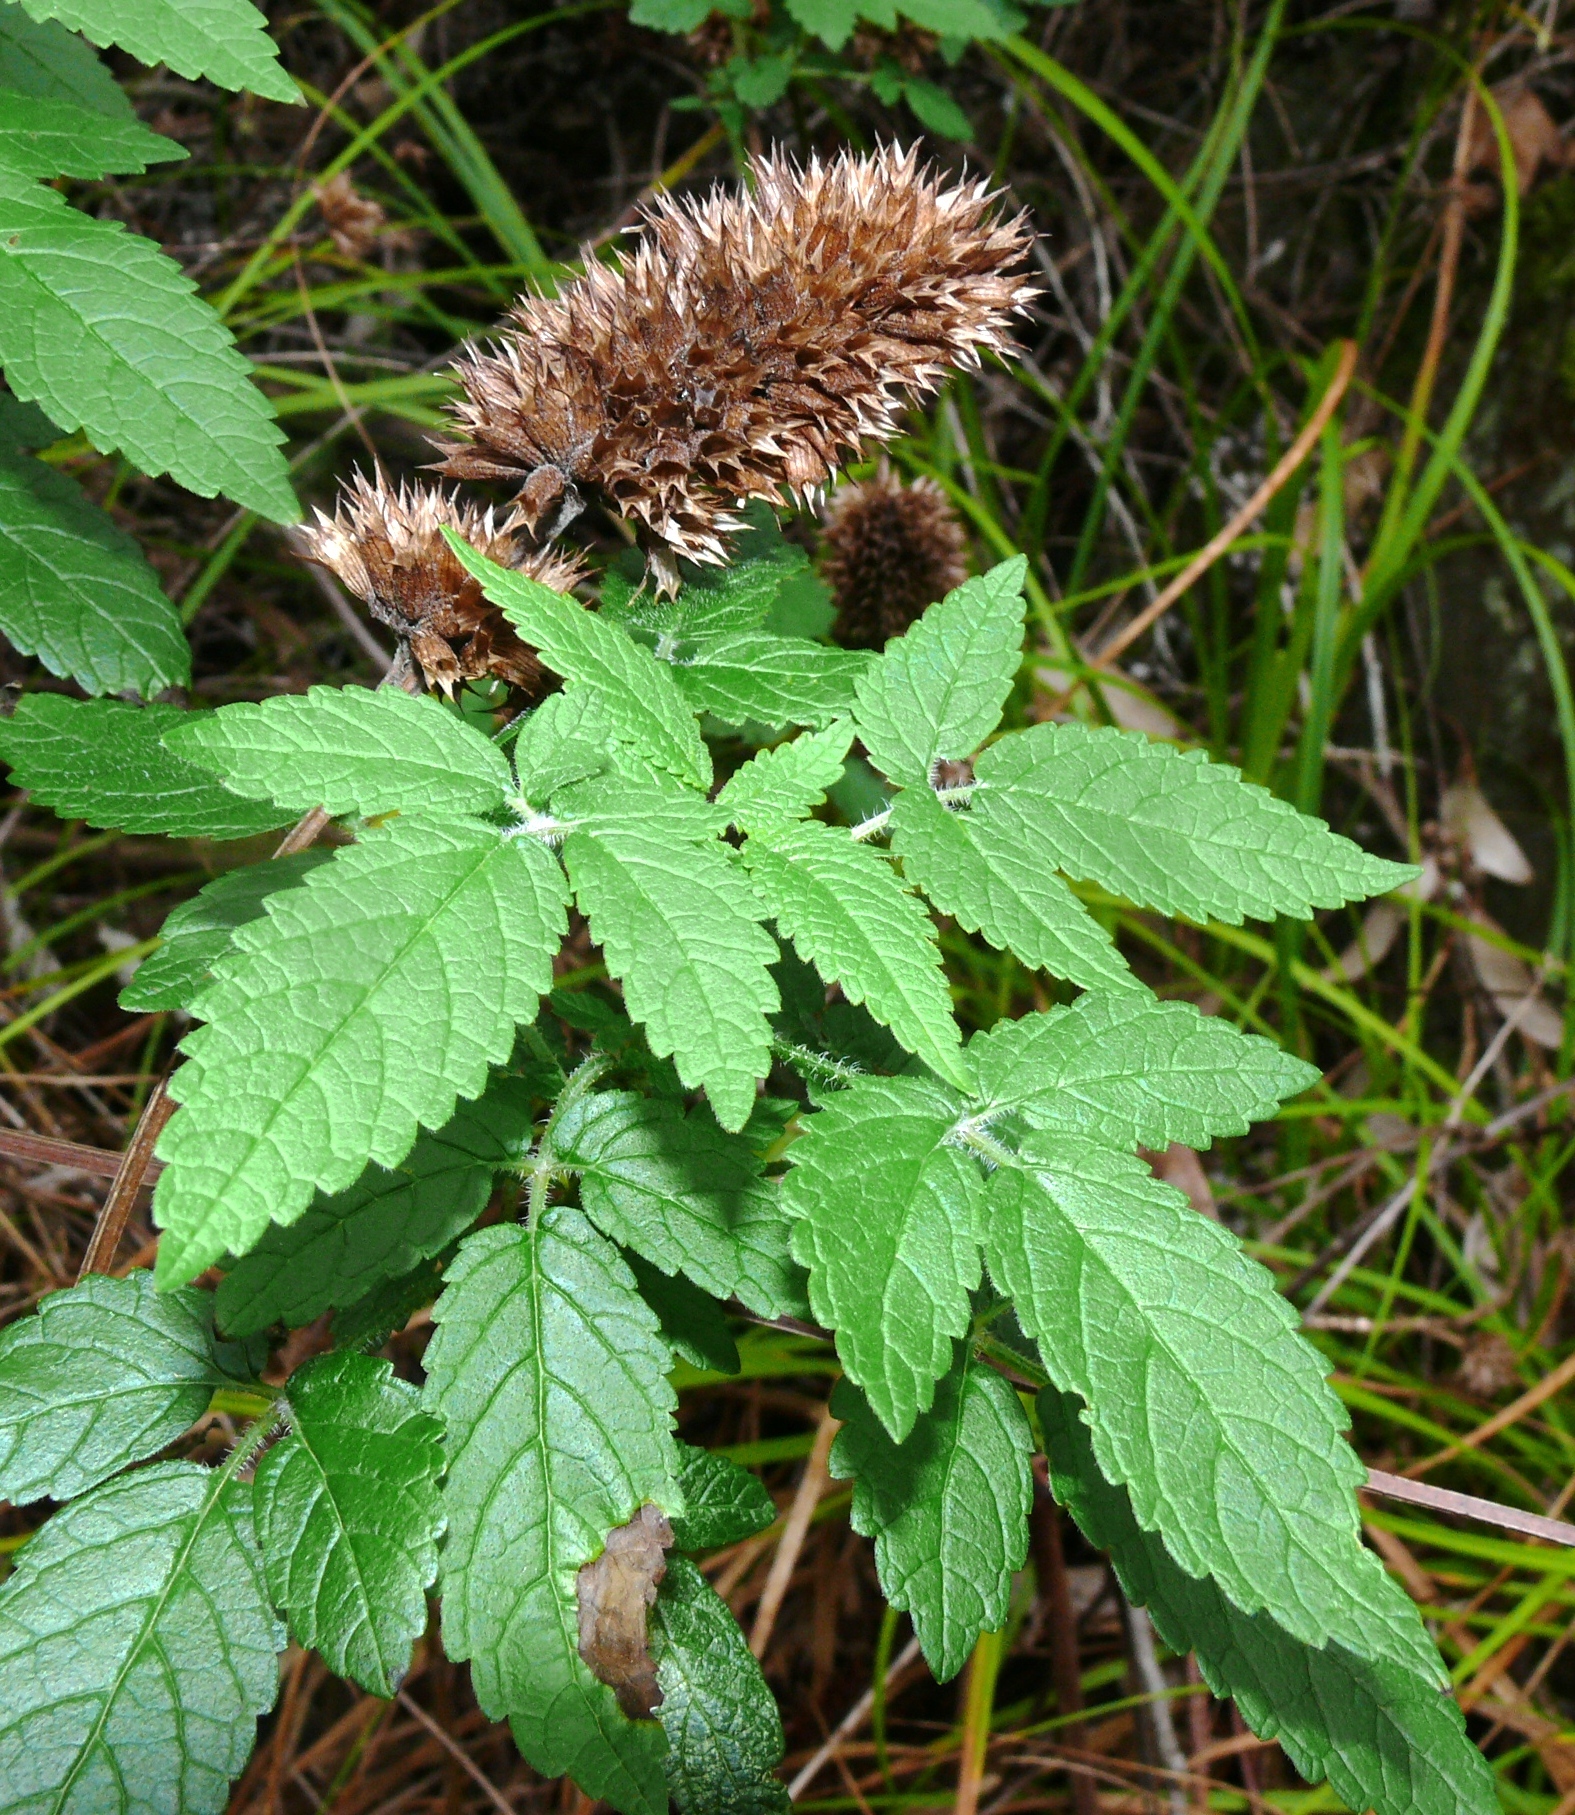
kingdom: Plantae
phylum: Tracheophyta
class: Magnoliopsida
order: Lamiales
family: Lamiaceae
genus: Cedronella
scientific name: Cedronella canariensis
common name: Canary islands balm
